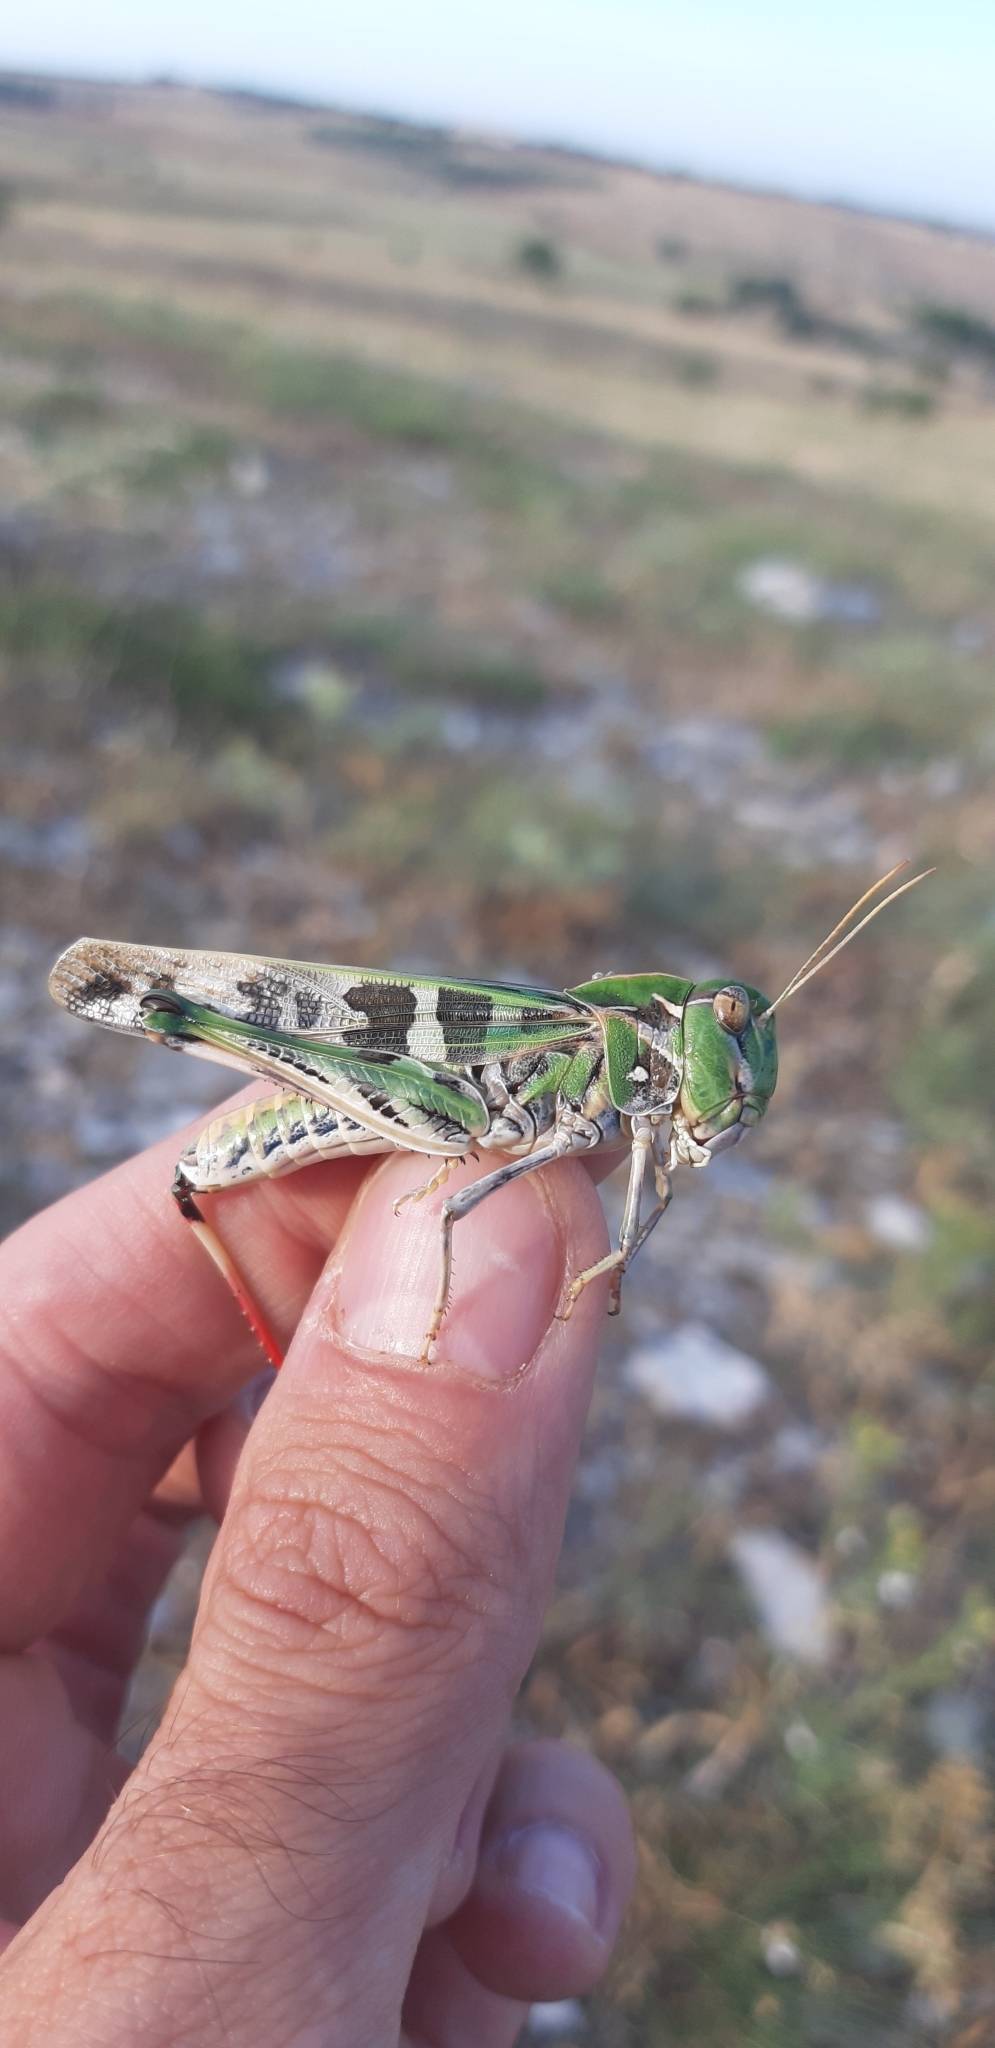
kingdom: Animalia
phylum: Arthropoda
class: Insecta
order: Orthoptera
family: Acrididae
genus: Oedaleus
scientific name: Oedaleus decorus
